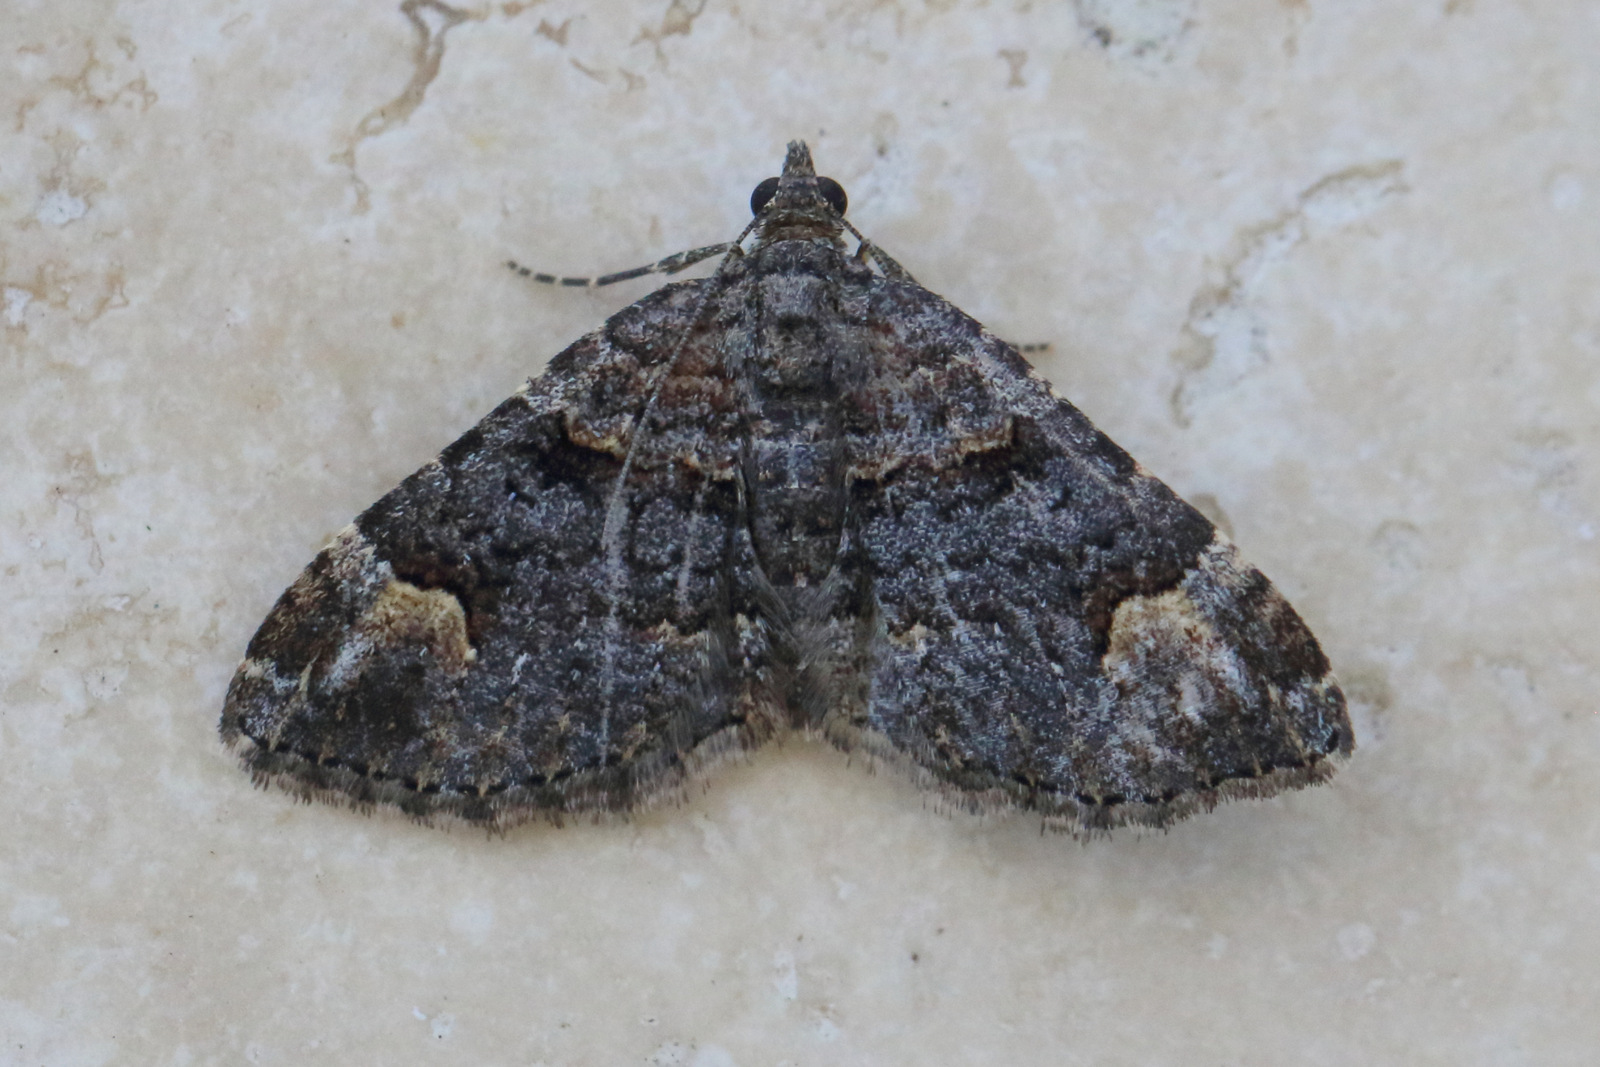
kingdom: Animalia
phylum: Arthropoda
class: Insecta
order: Lepidoptera
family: Geometridae
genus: Epyaxa
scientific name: Epyaxa sodaliata
